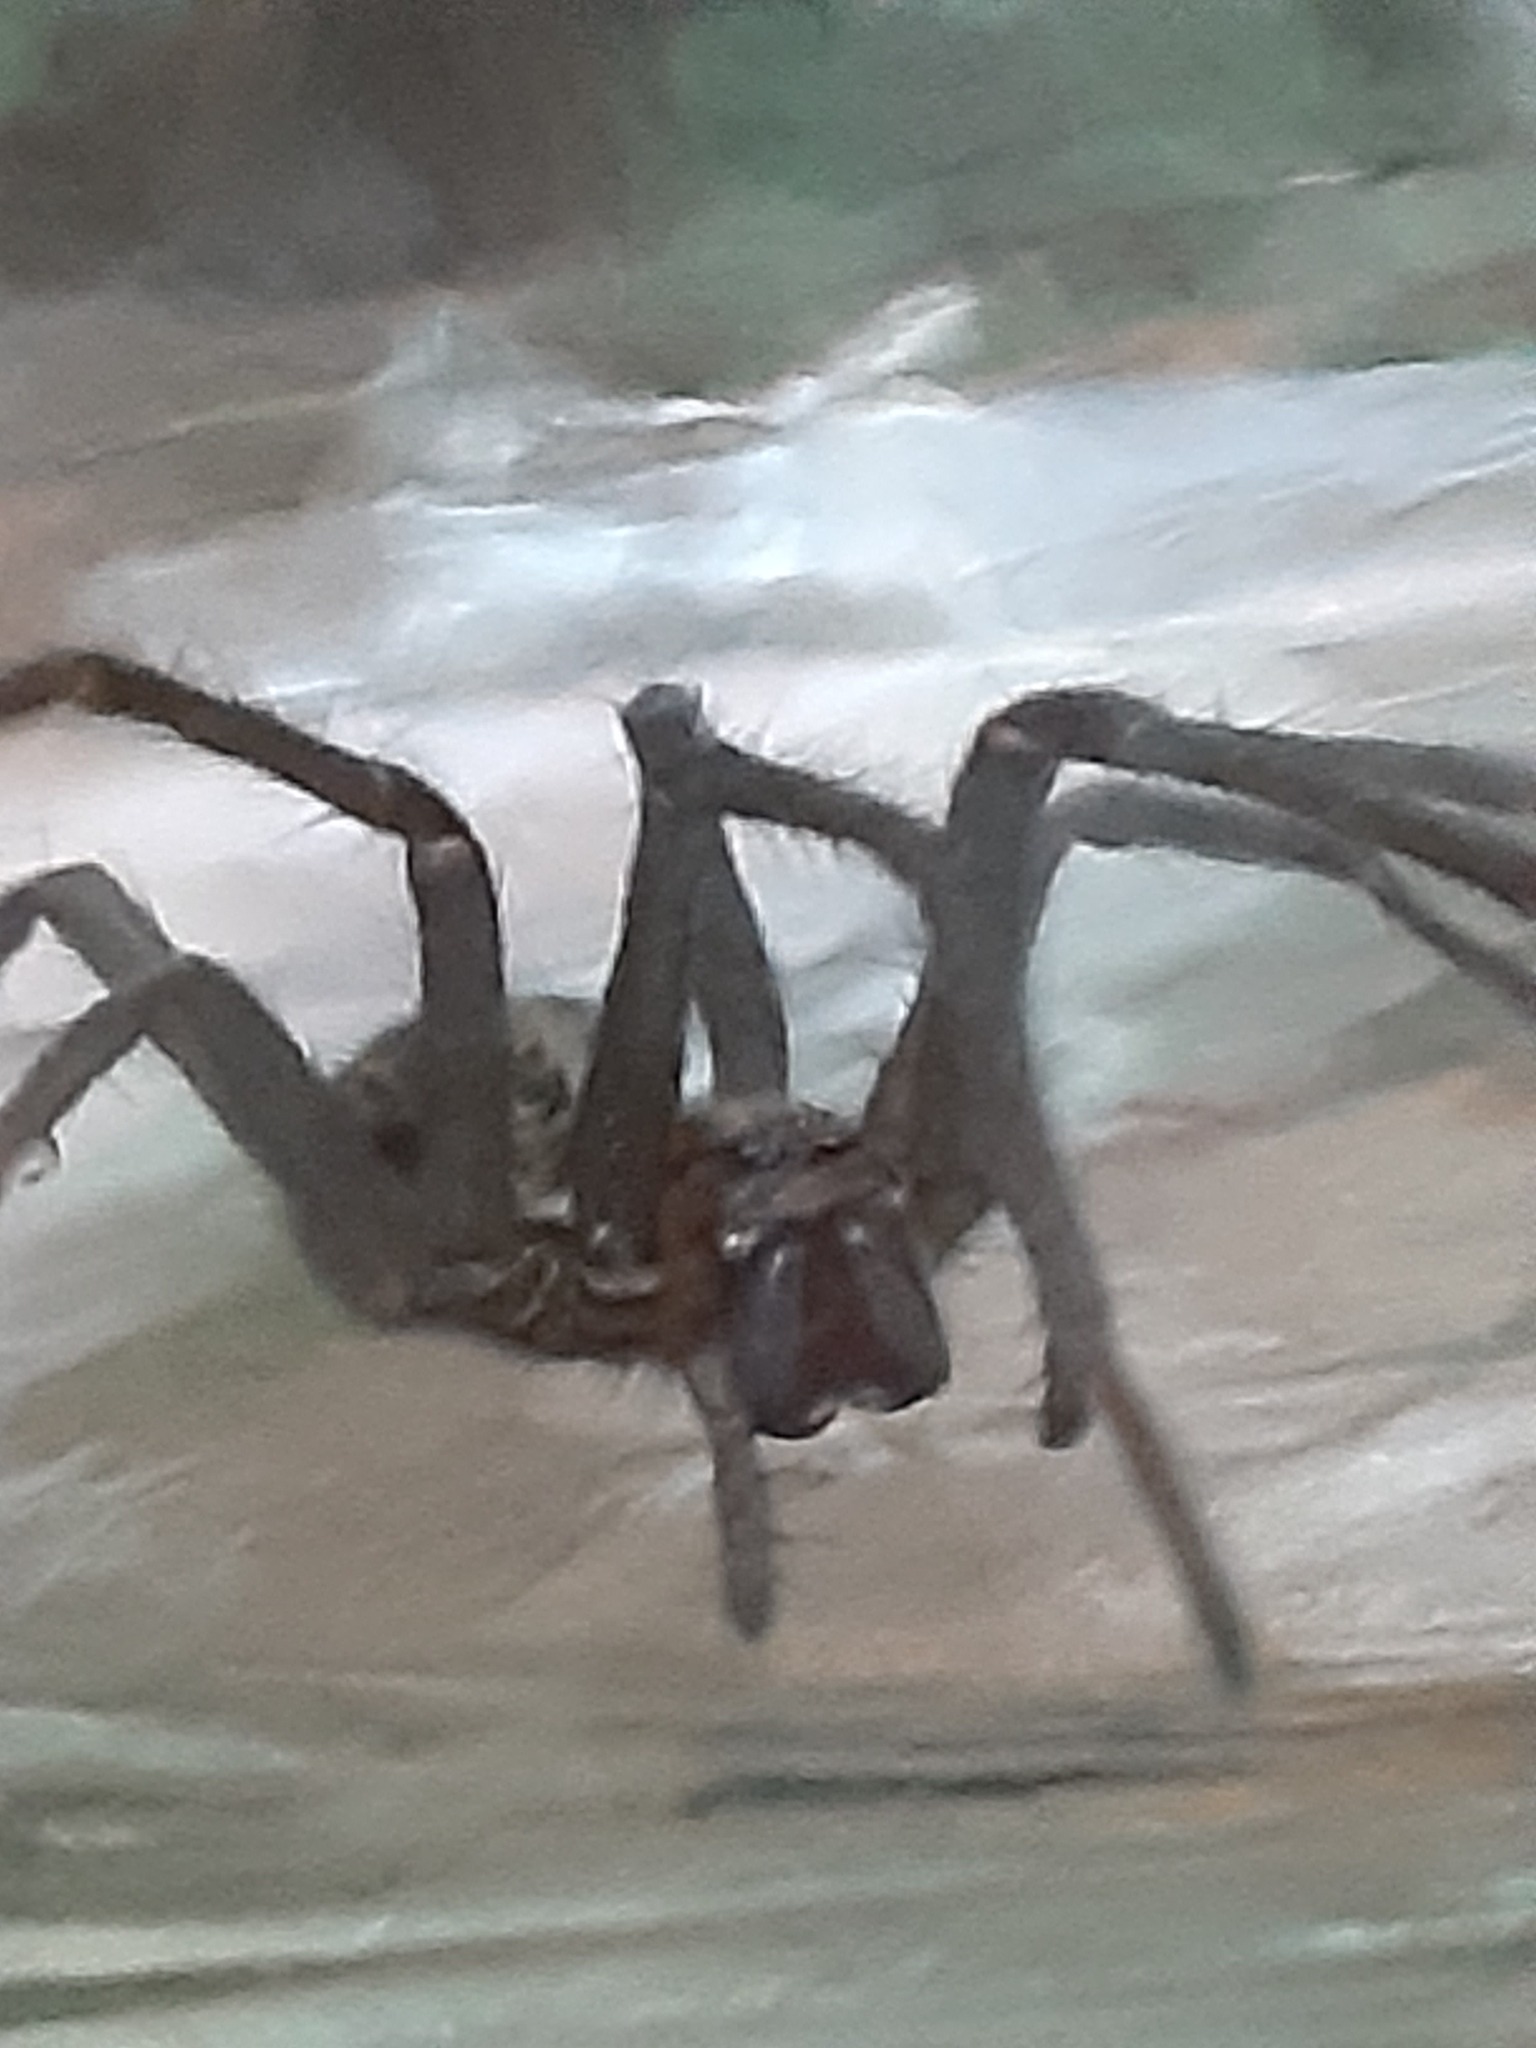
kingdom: Animalia
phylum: Arthropoda
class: Arachnida
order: Araneae
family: Agelenidae
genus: Eratigena
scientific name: Eratigena duellica
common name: Giant house spider
